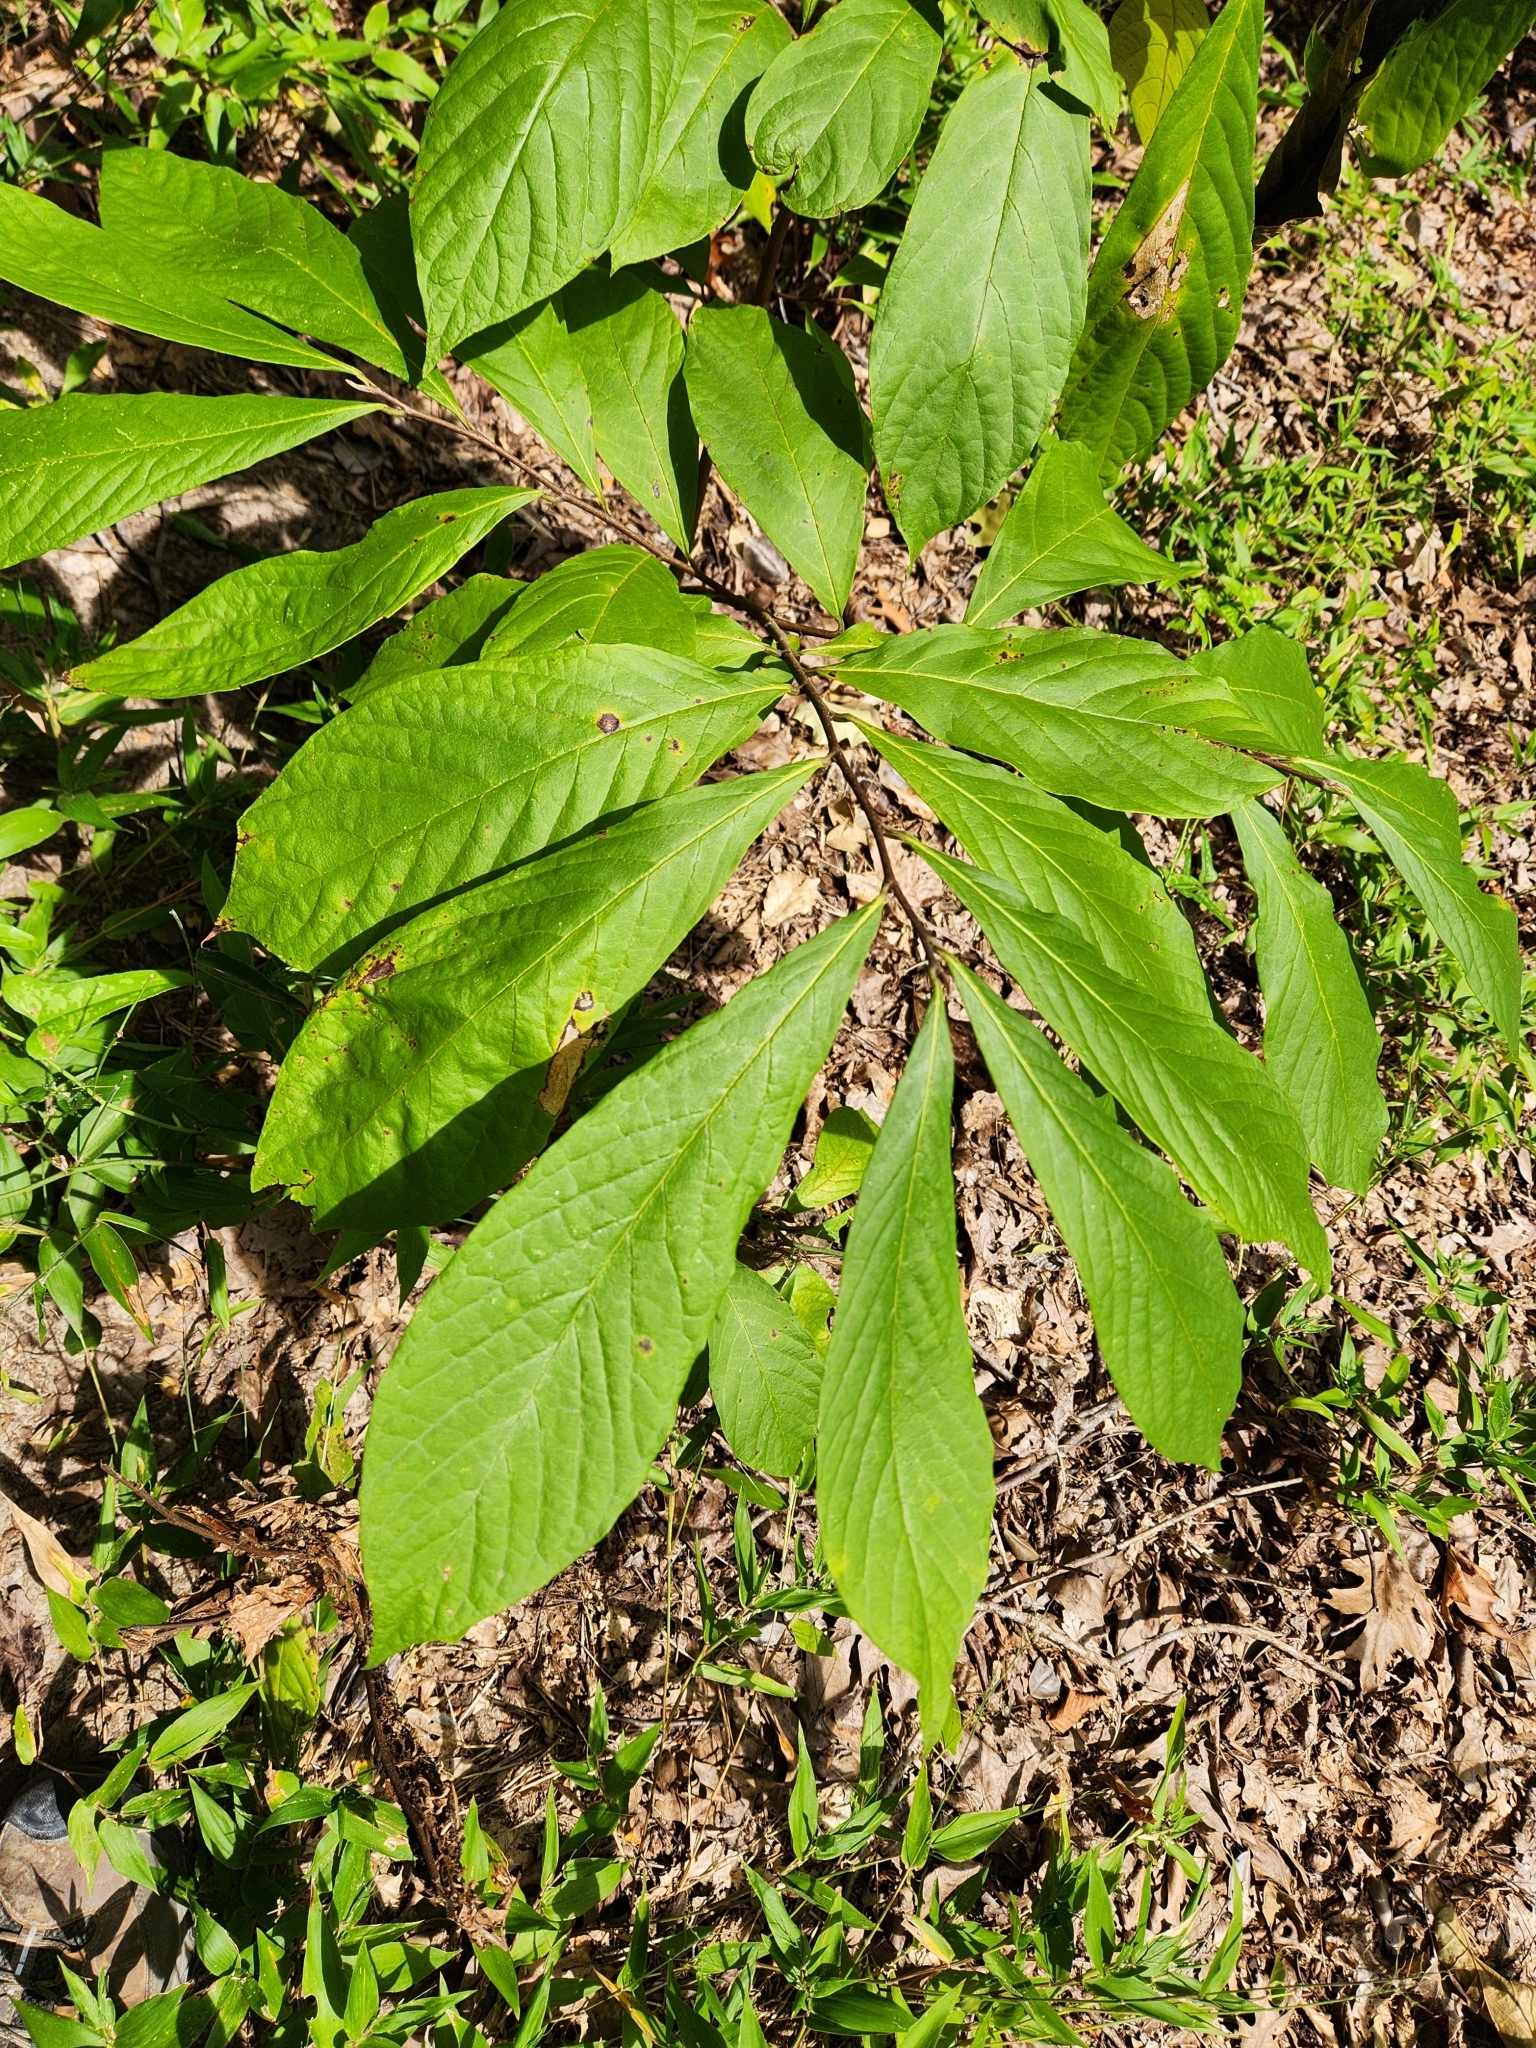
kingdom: Plantae
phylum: Tracheophyta
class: Magnoliopsida
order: Magnoliales
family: Annonaceae
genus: Asimina
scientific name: Asimina triloba
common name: Dog-banana
